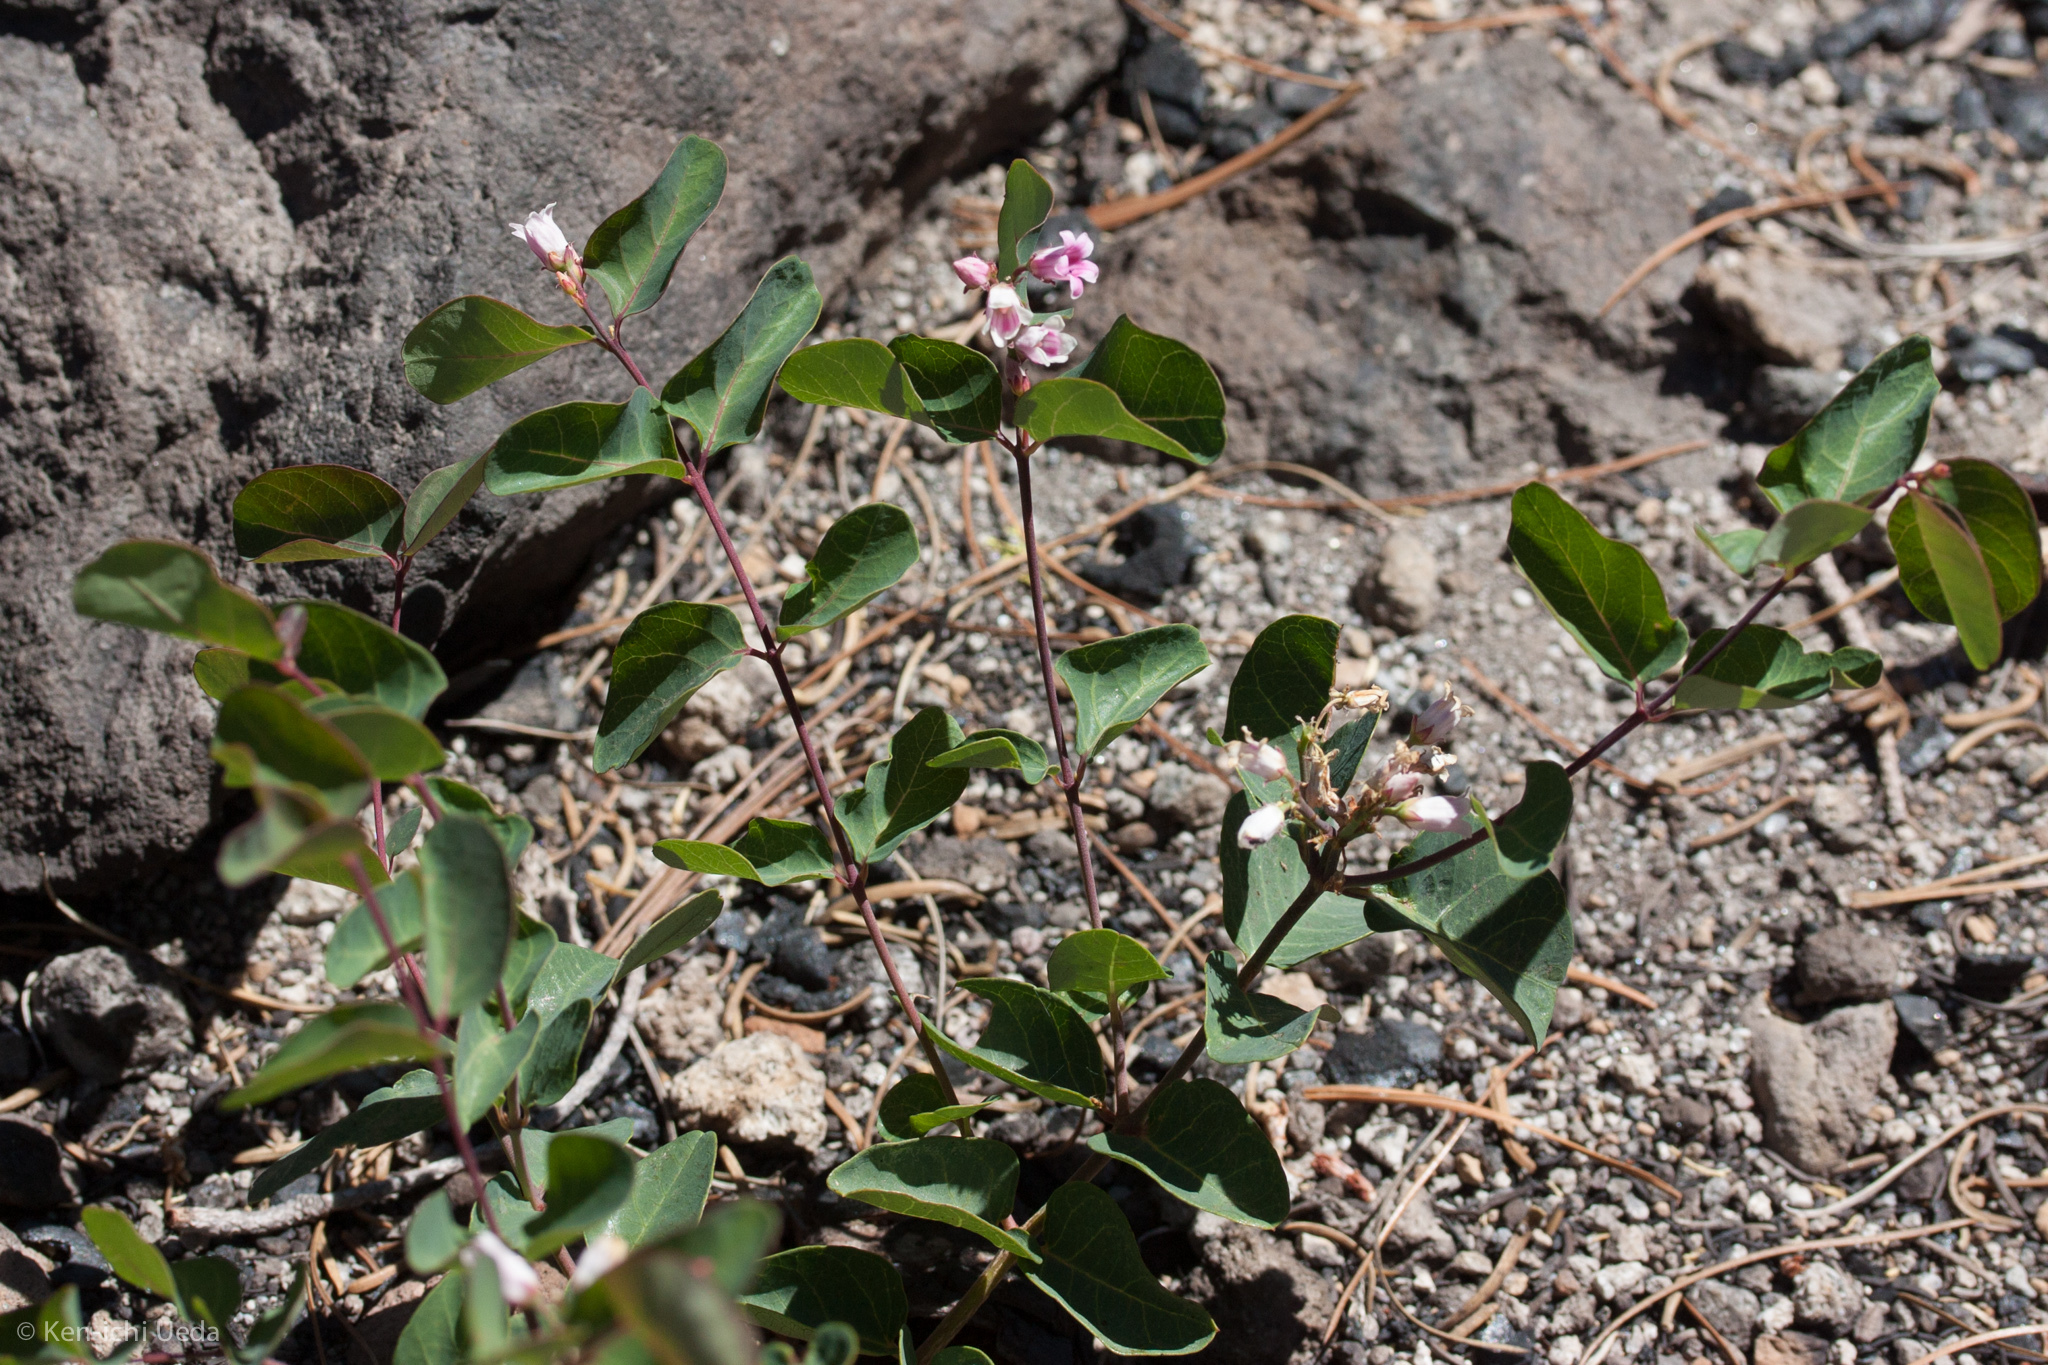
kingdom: Plantae
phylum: Tracheophyta
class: Magnoliopsida
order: Gentianales
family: Apocynaceae
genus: Apocynum
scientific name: Apocynum androsaemifolium
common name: Spreading dogbane
